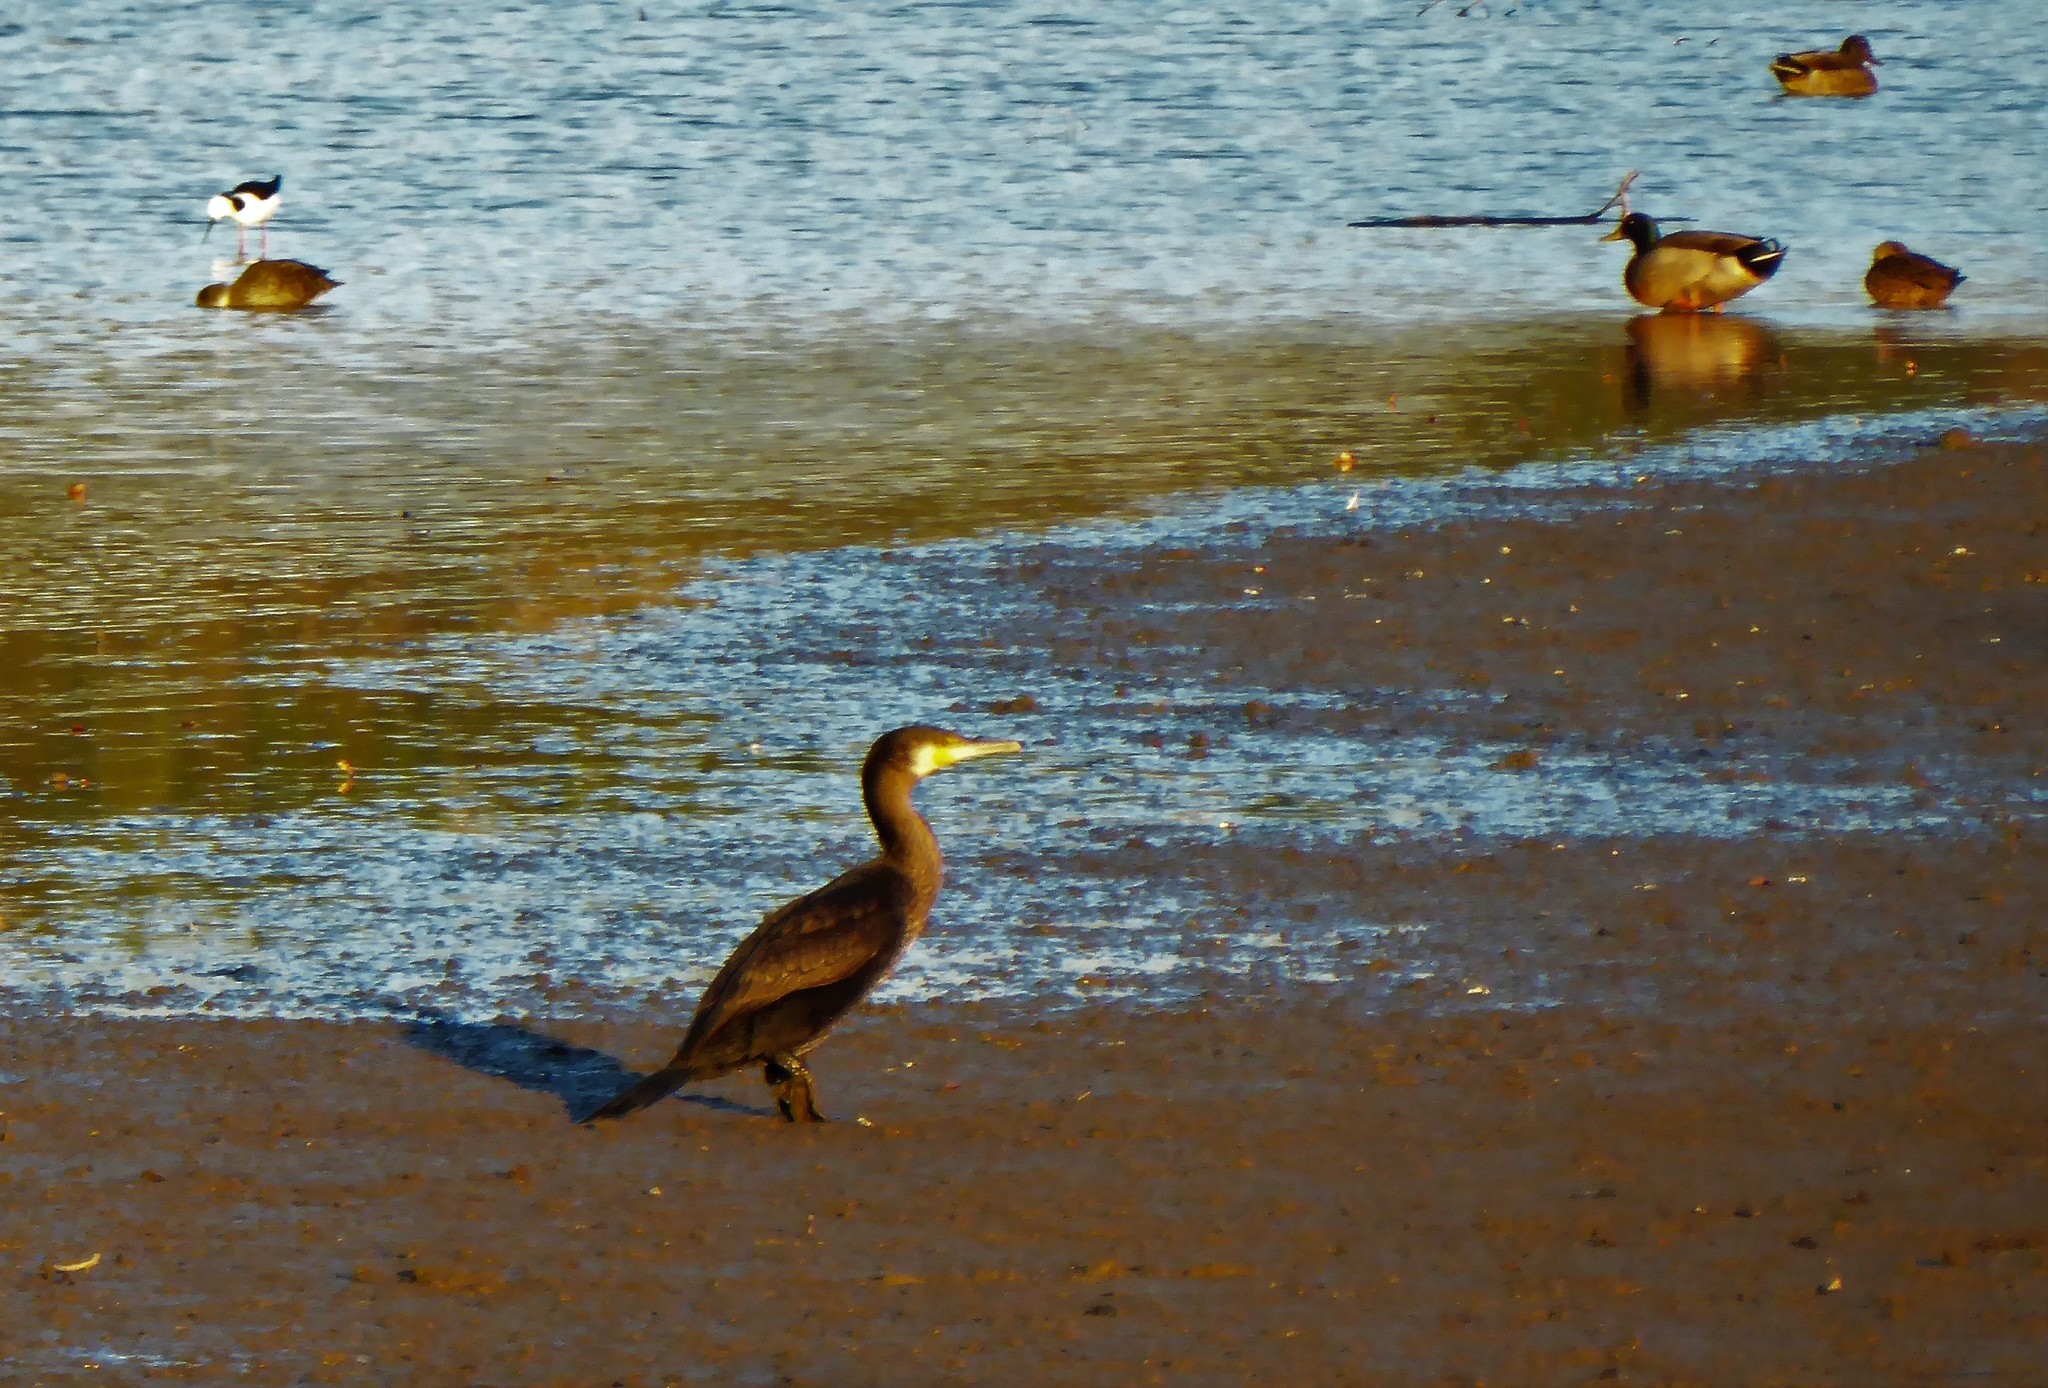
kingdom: Animalia
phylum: Chordata
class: Aves
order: Suliformes
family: Phalacrocoracidae
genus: Phalacrocorax
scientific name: Phalacrocorax carbo
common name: Great cormorant
